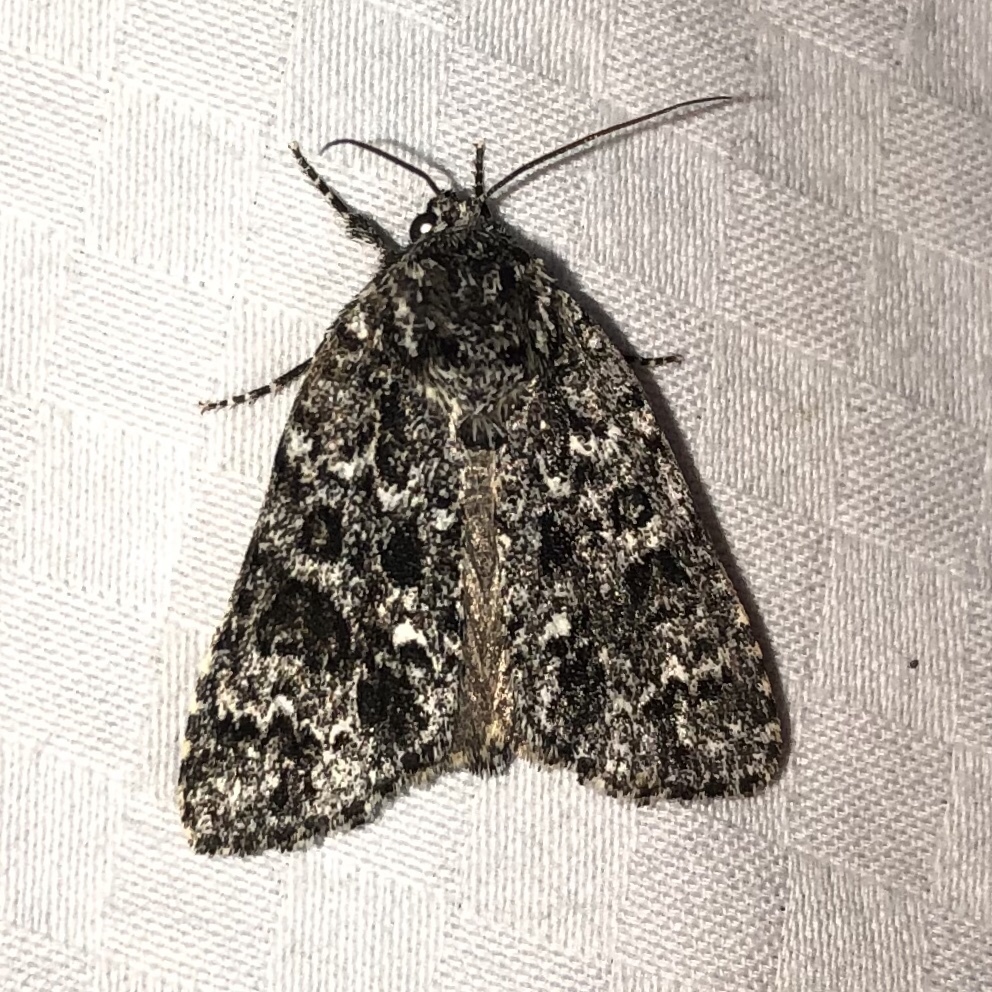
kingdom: Animalia
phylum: Arthropoda
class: Insecta
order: Lepidoptera
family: Noctuidae
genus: Acronicta
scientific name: Acronicta noctivaga
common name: Night-wandering dagger
